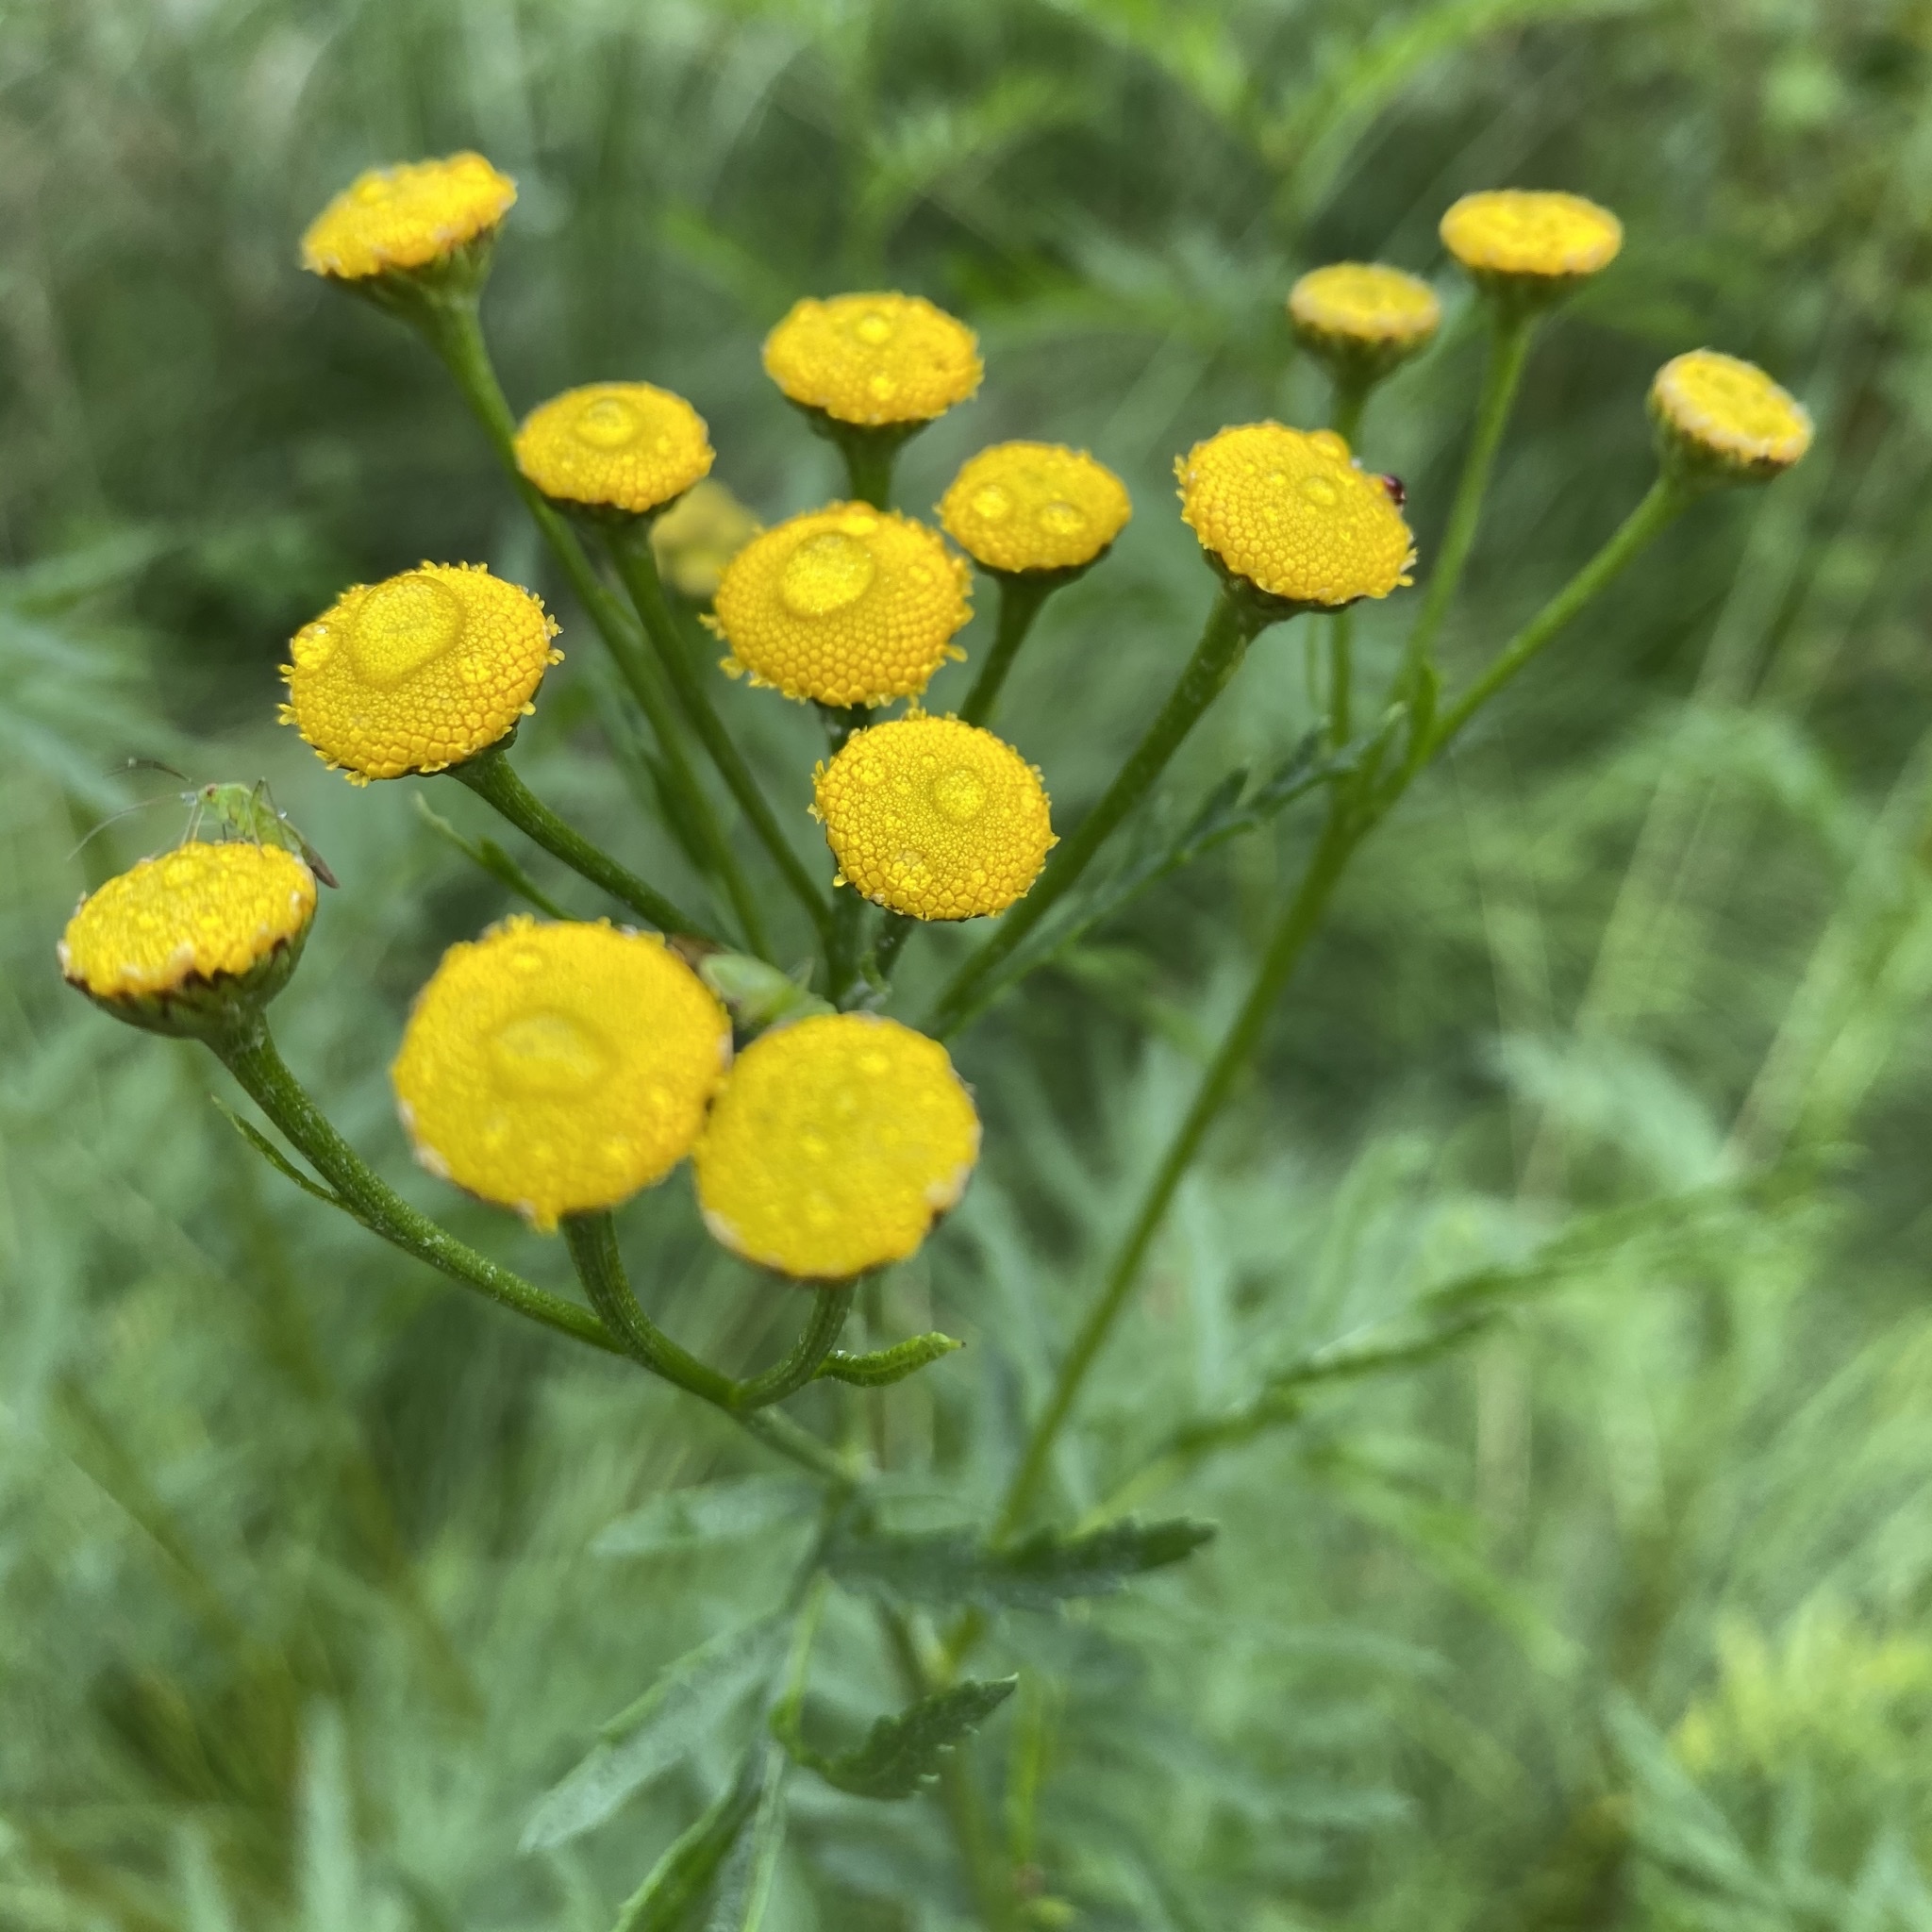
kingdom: Plantae
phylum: Tracheophyta
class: Magnoliopsida
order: Asterales
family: Asteraceae
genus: Tanacetum
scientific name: Tanacetum vulgare
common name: Common tansy
